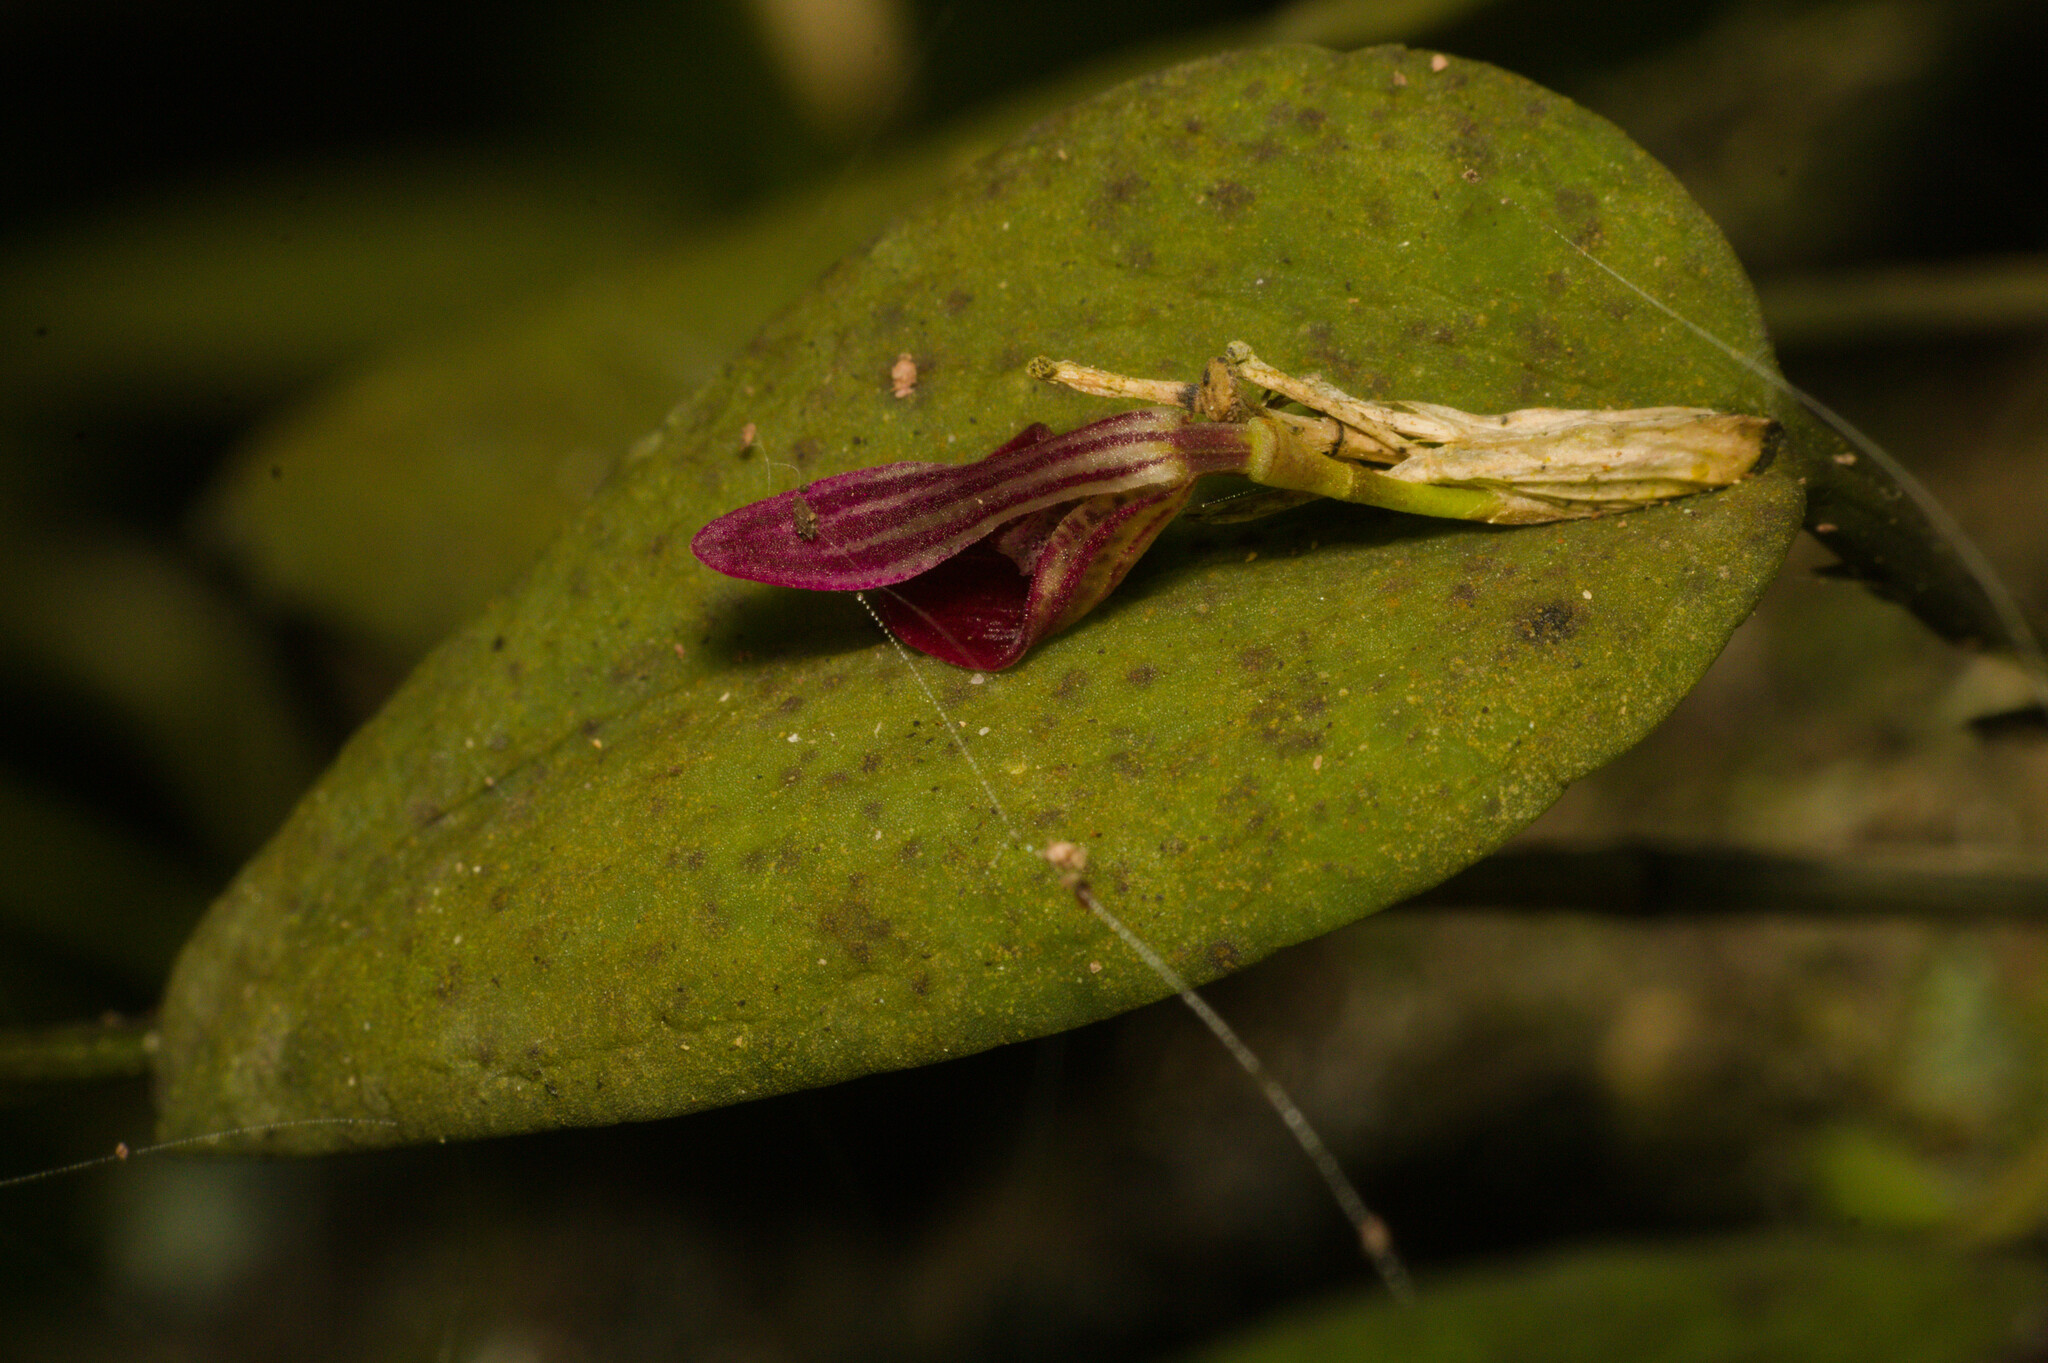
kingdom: Plantae
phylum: Tracheophyta
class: Liliopsida
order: Asparagales
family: Orchidaceae
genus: Acianthera
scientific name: Acianthera panduripetala
